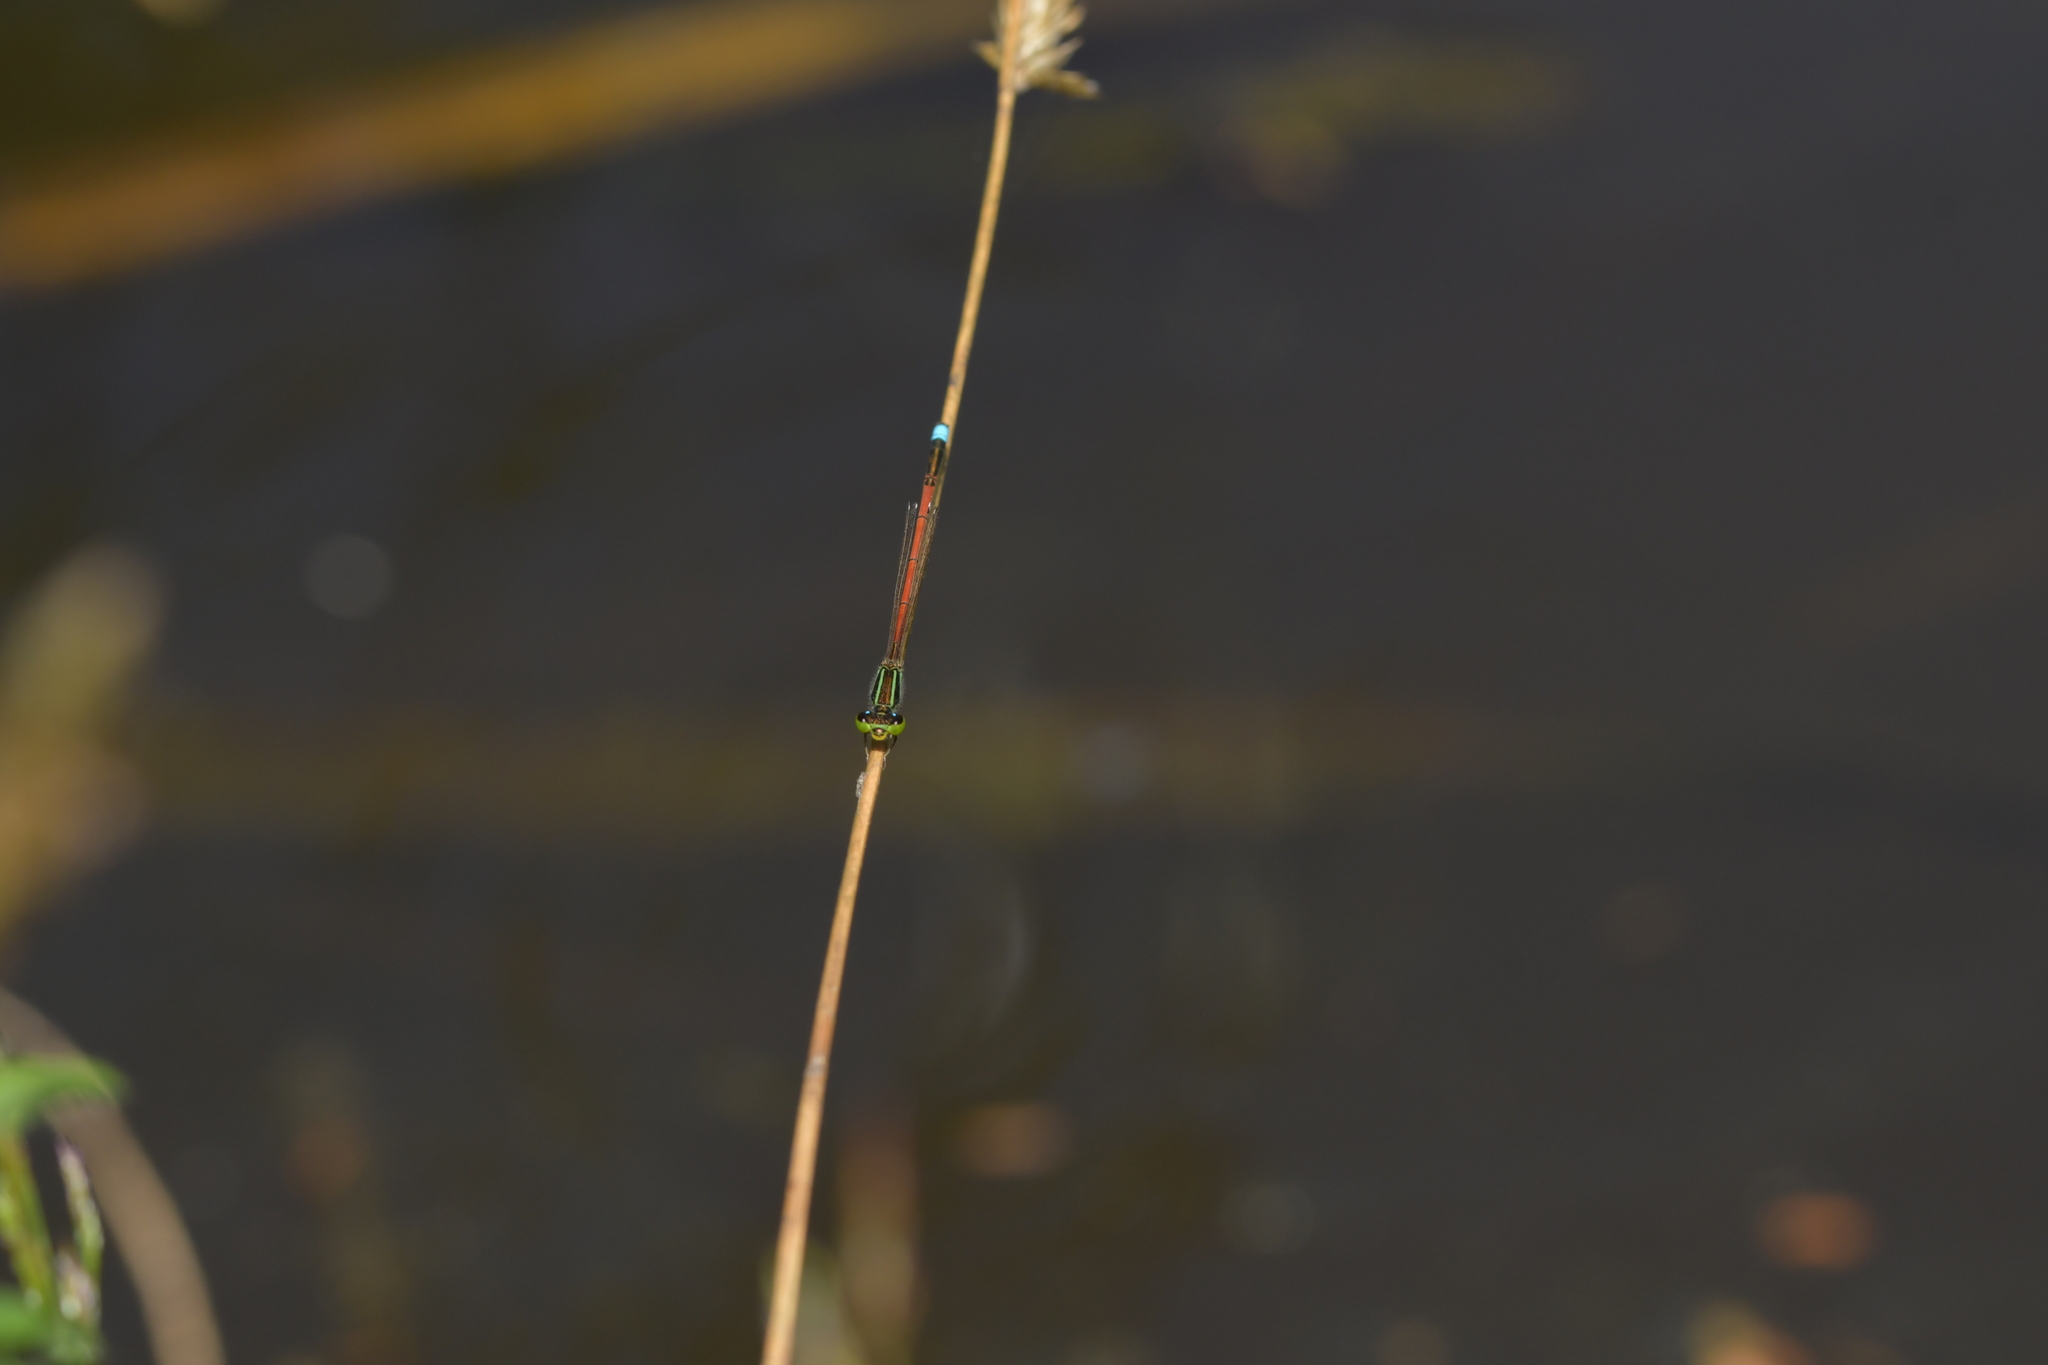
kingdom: Animalia
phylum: Arthropoda
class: Insecta
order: Odonata
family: Coenagrionidae
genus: Ischnura
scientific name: Ischnura aurora
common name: Gossamer damselfly
